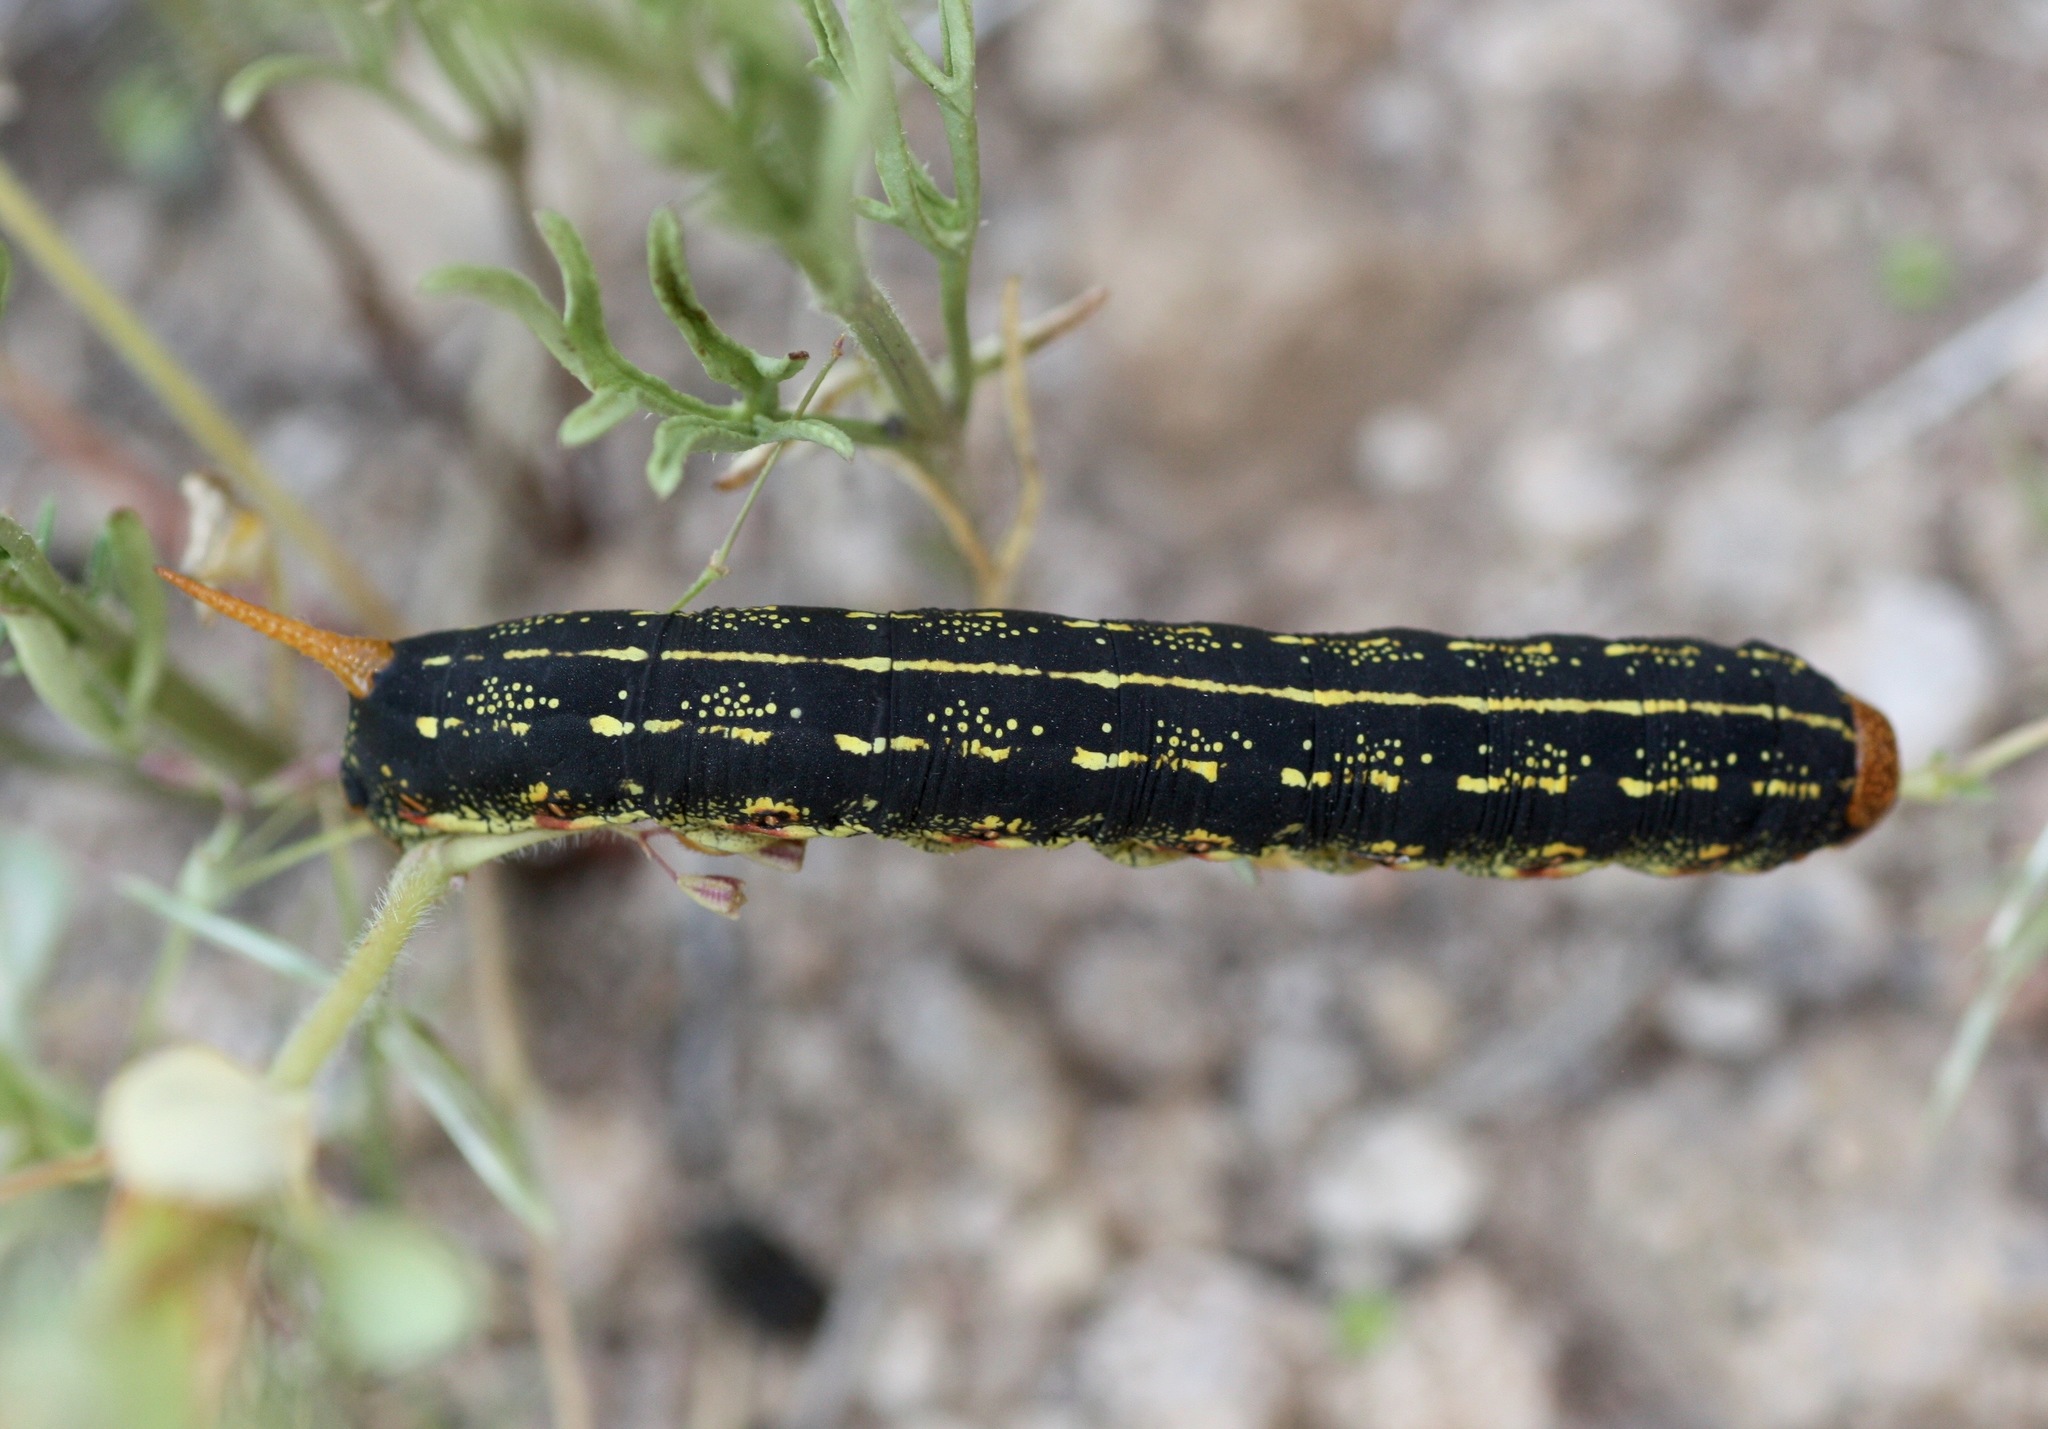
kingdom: Animalia
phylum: Arthropoda
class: Insecta
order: Lepidoptera
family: Sphingidae
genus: Hyles
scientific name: Hyles lineata
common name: White-lined sphinx
